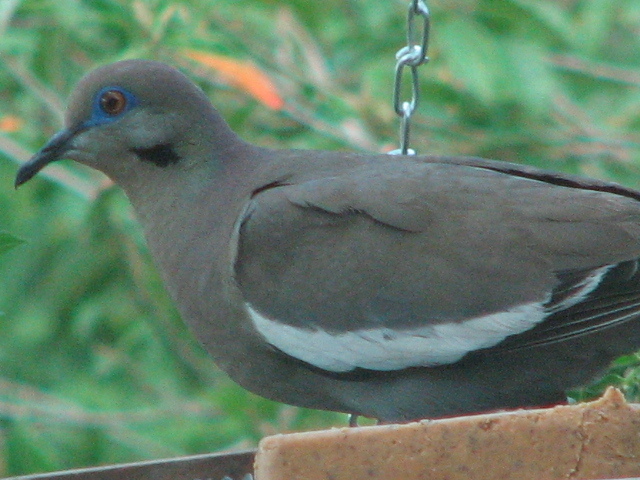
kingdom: Animalia
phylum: Chordata
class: Aves
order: Columbiformes
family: Columbidae
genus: Zenaida
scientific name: Zenaida asiatica
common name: White-winged dove
